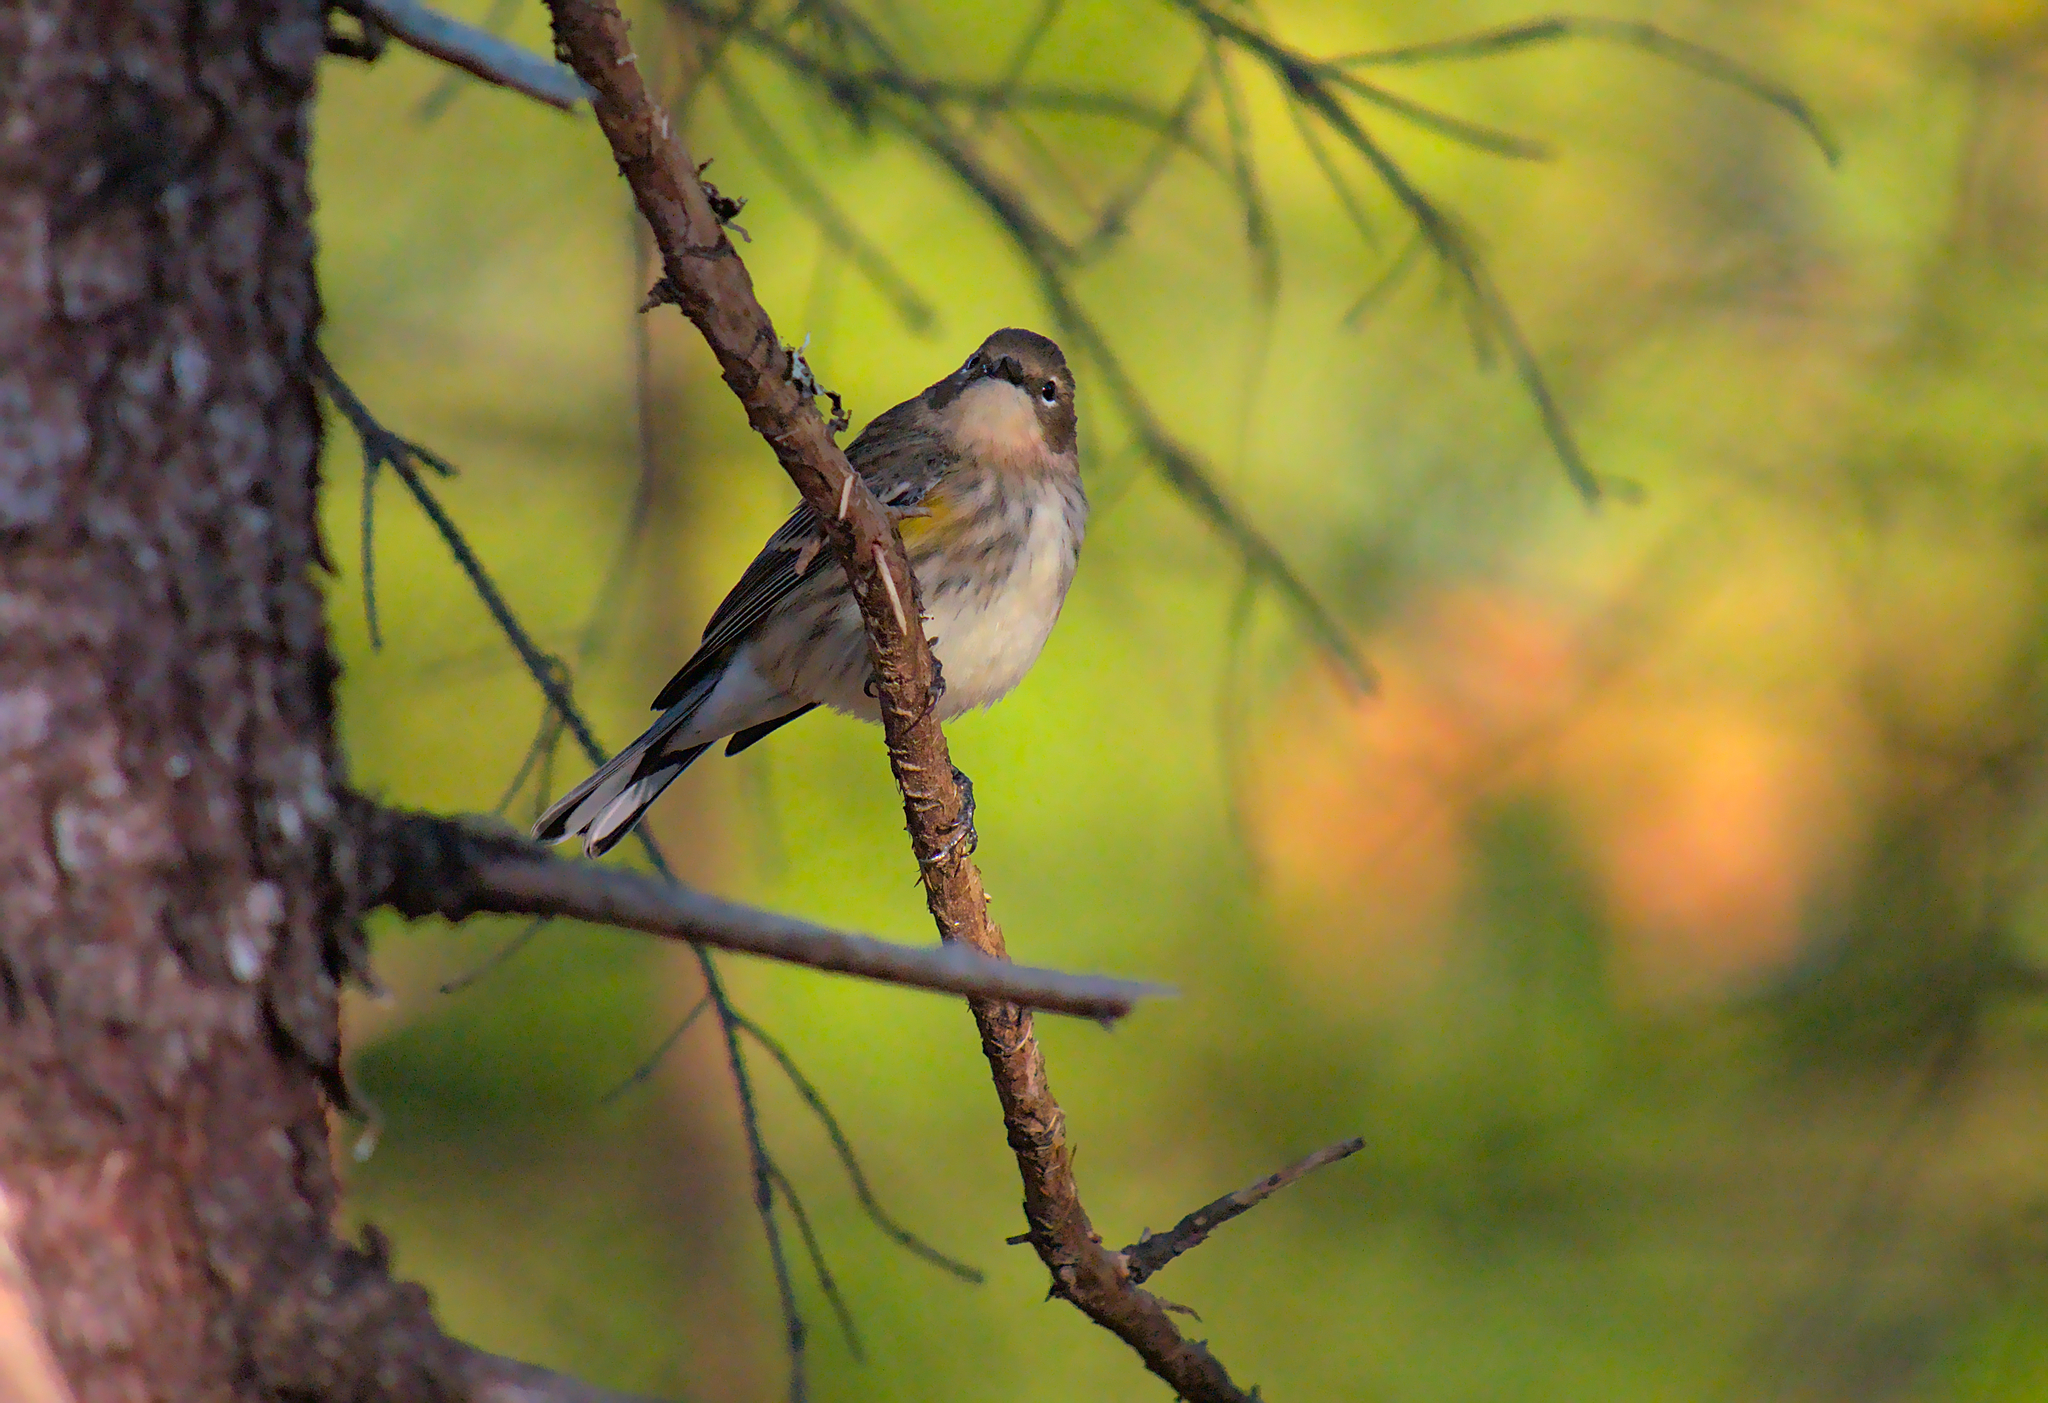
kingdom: Animalia
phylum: Chordata
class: Aves
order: Passeriformes
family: Parulidae
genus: Setophaga
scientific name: Setophaga coronata
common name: Myrtle warbler
